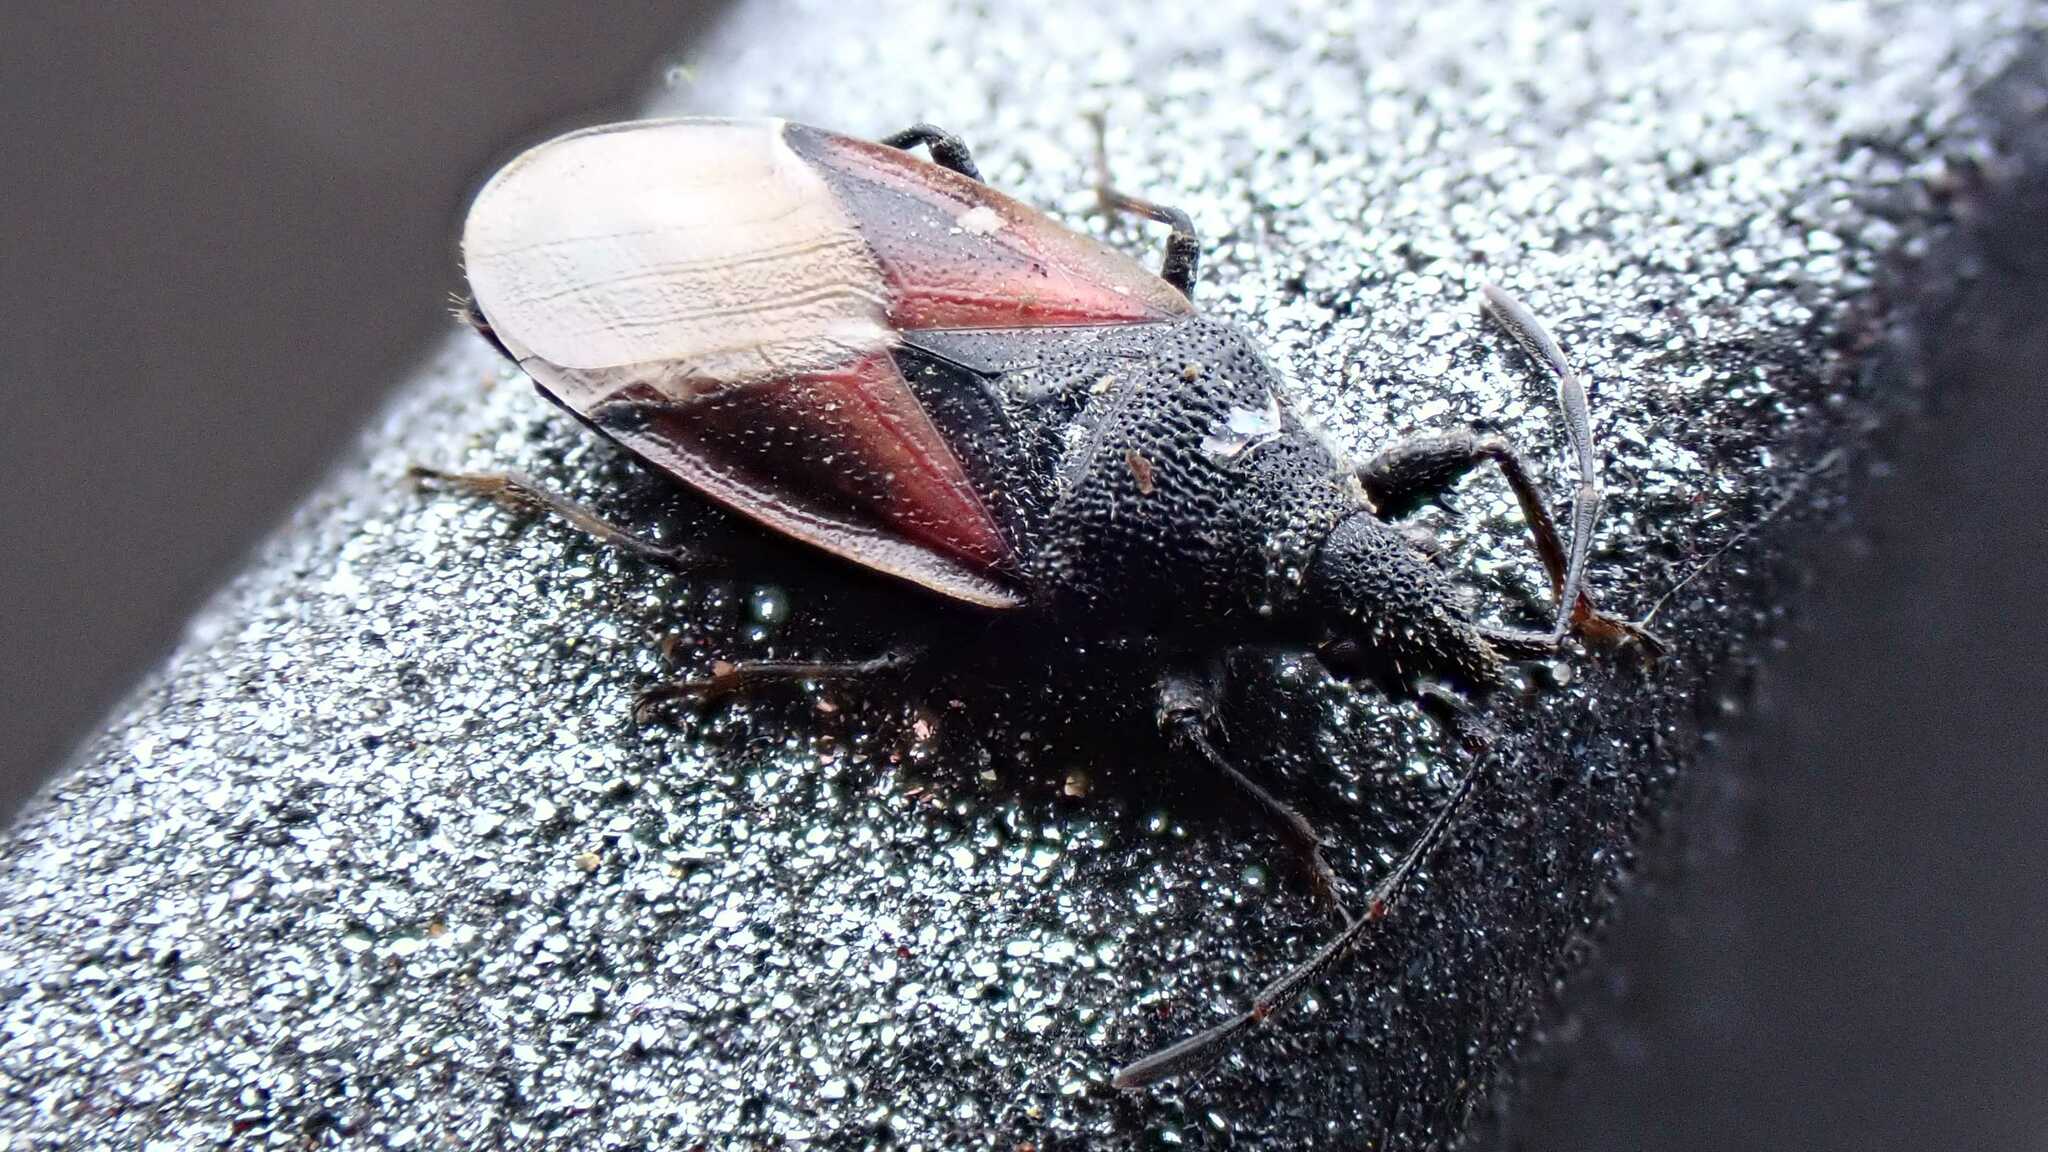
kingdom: Animalia
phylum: Arthropoda
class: Insecta
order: Hemiptera
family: Oxycarenidae
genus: Oxycarenus
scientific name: Oxycarenus lavaterae
